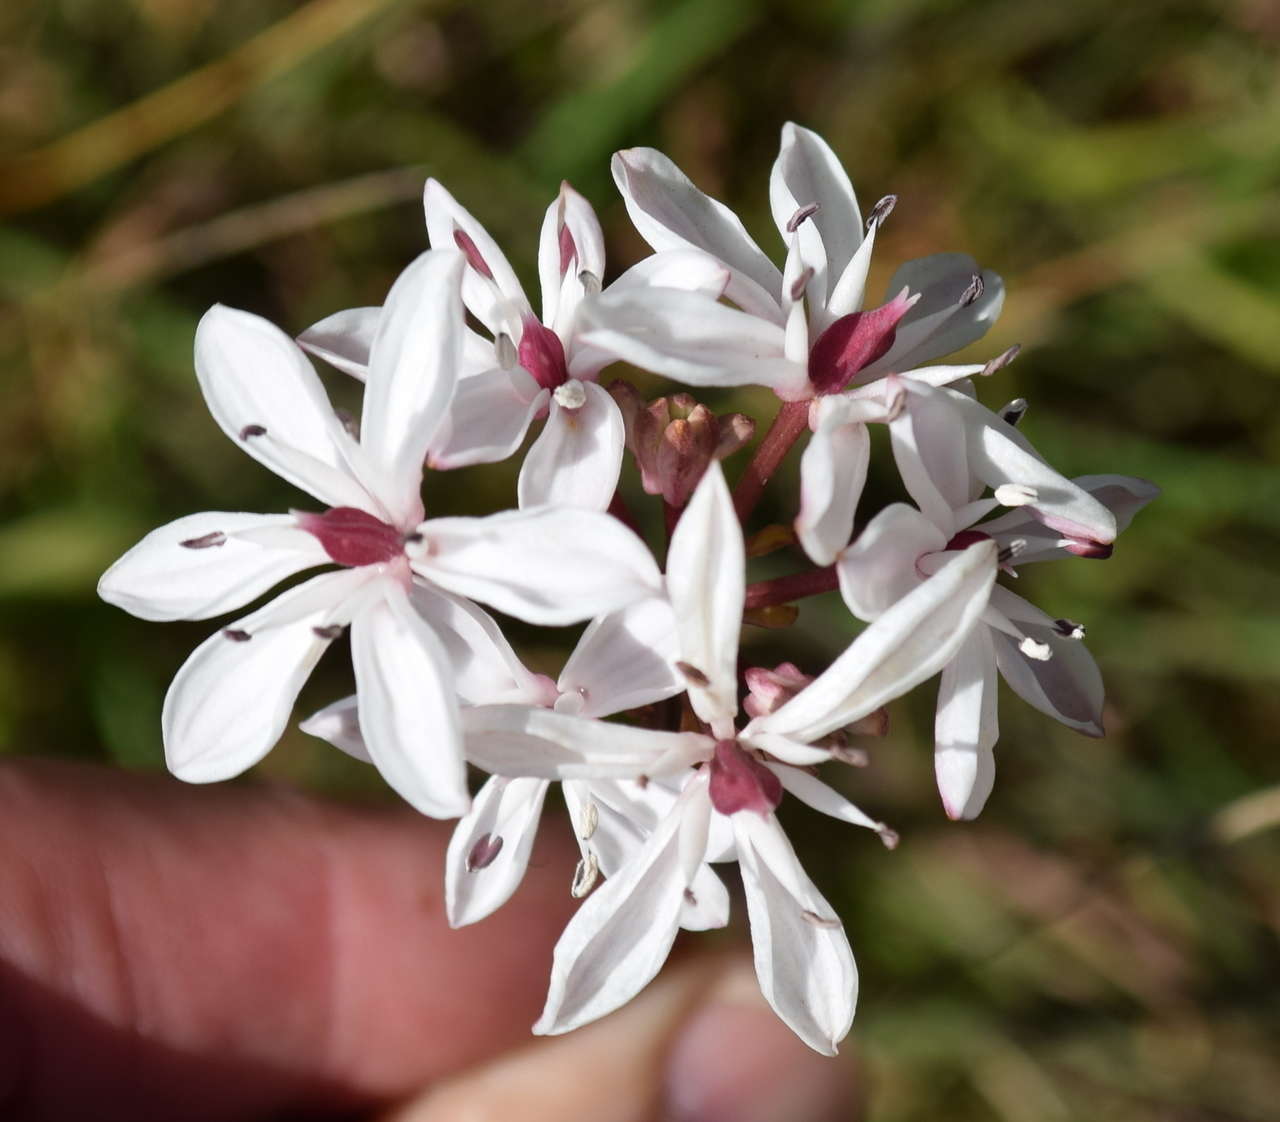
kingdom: Plantae
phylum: Tracheophyta
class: Liliopsida
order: Liliales
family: Colchicaceae
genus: Burchardia
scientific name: Burchardia umbellata
